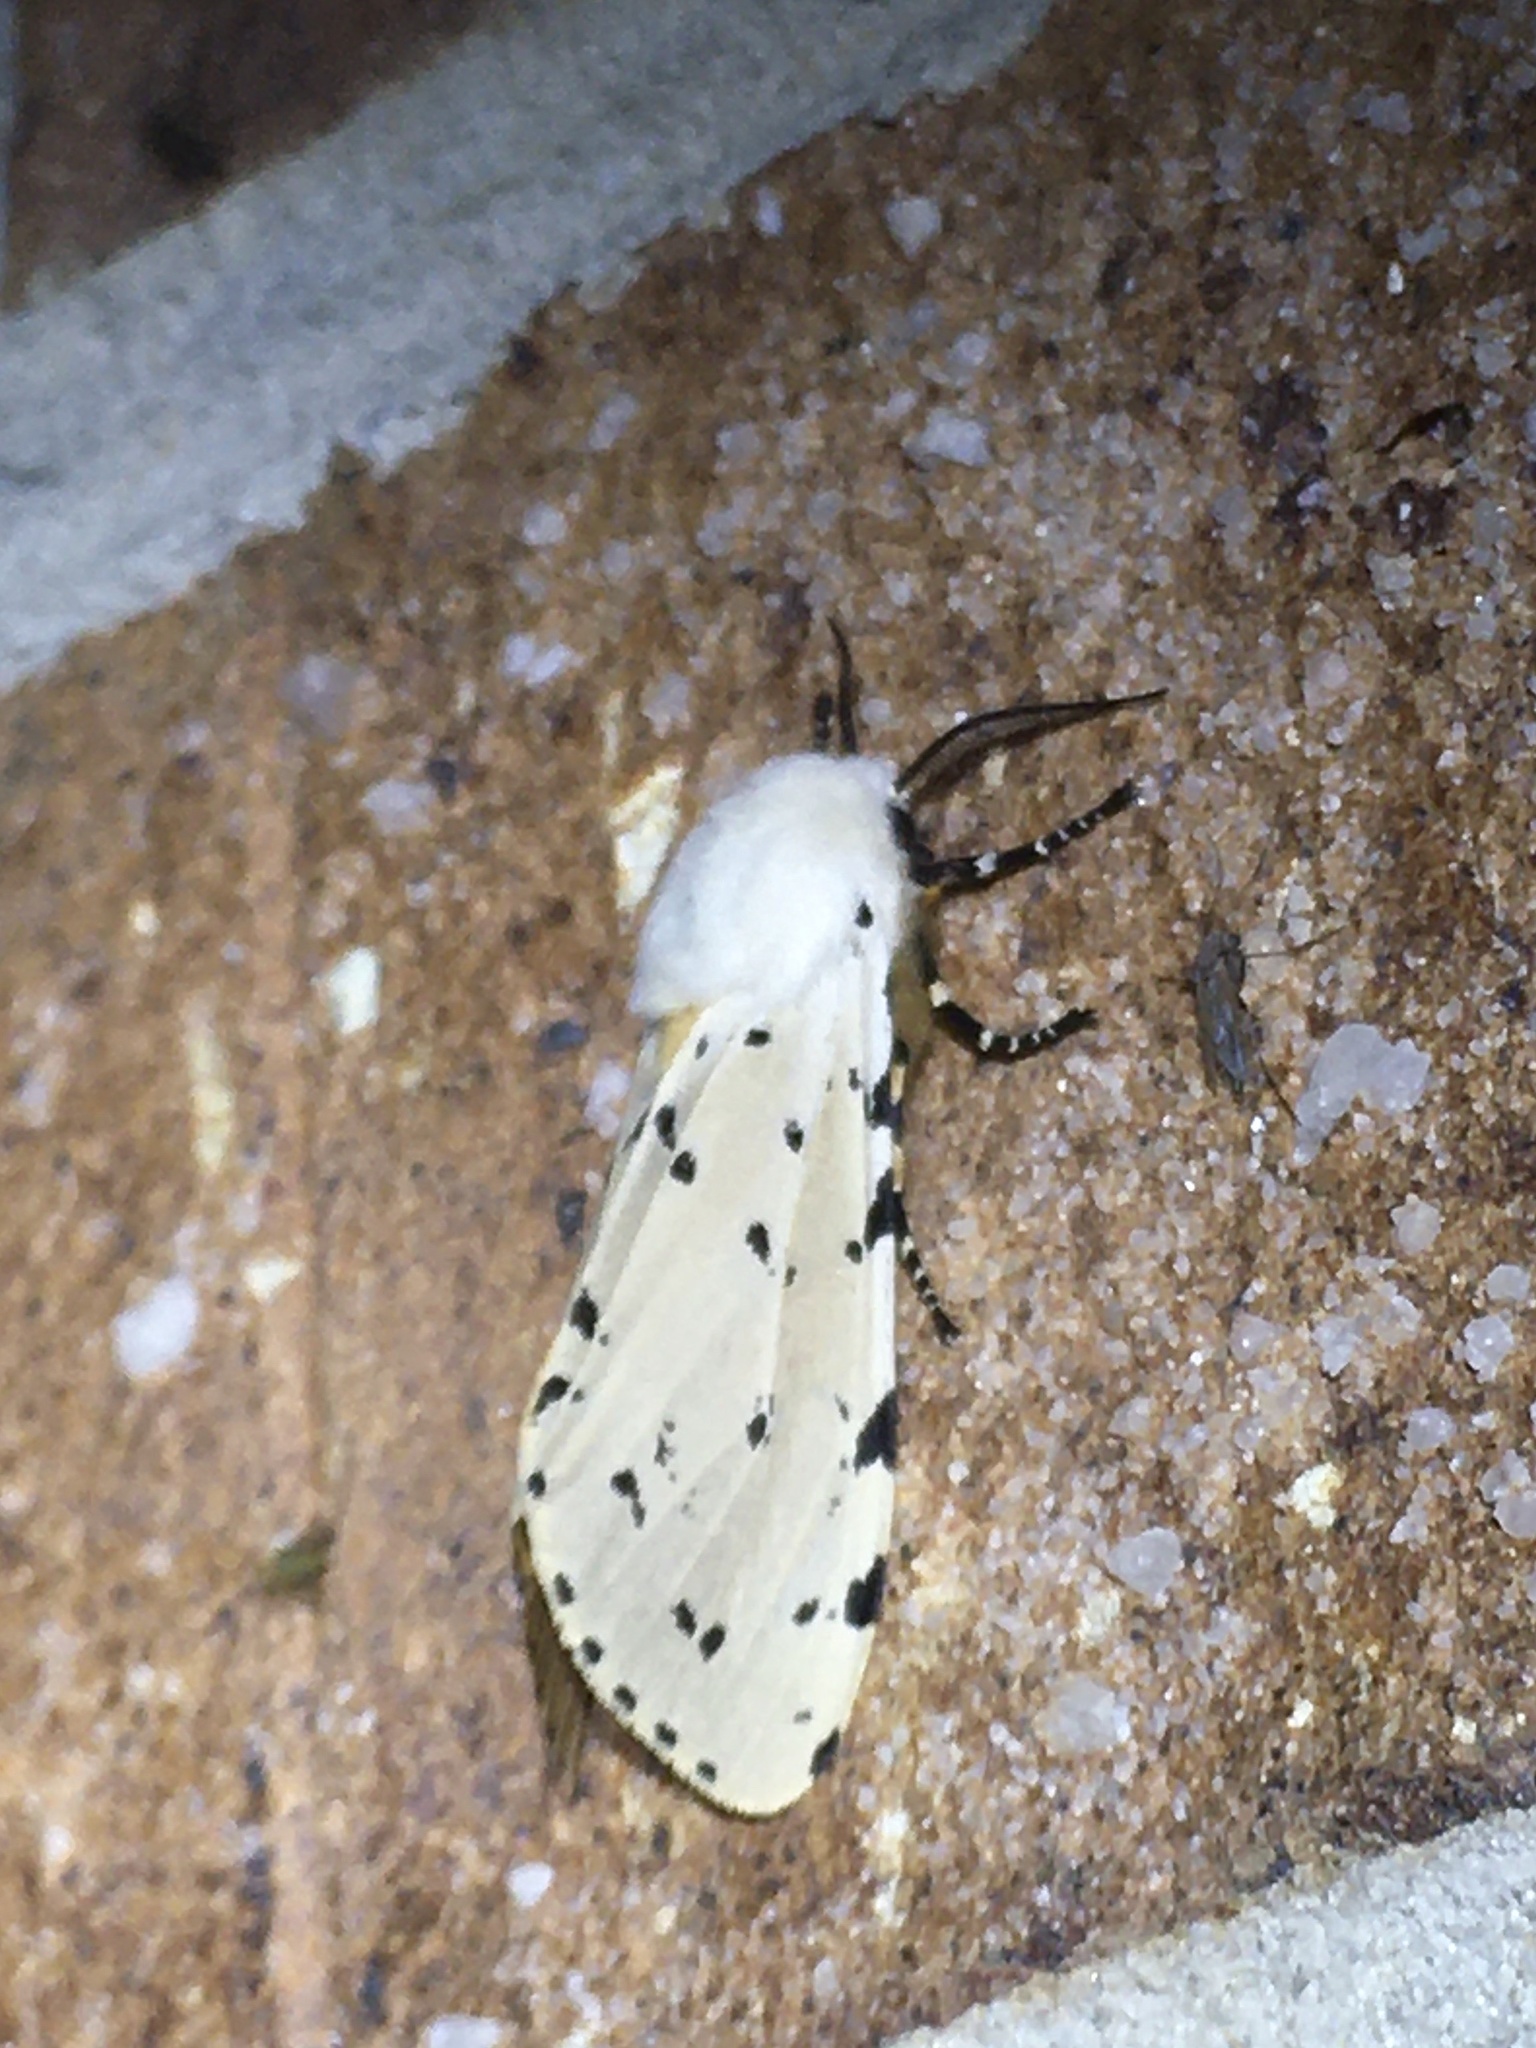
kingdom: Animalia
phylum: Arthropoda
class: Insecta
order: Lepidoptera
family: Erebidae
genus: Estigmene
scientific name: Estigmene acrea
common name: Salt marsh moth
